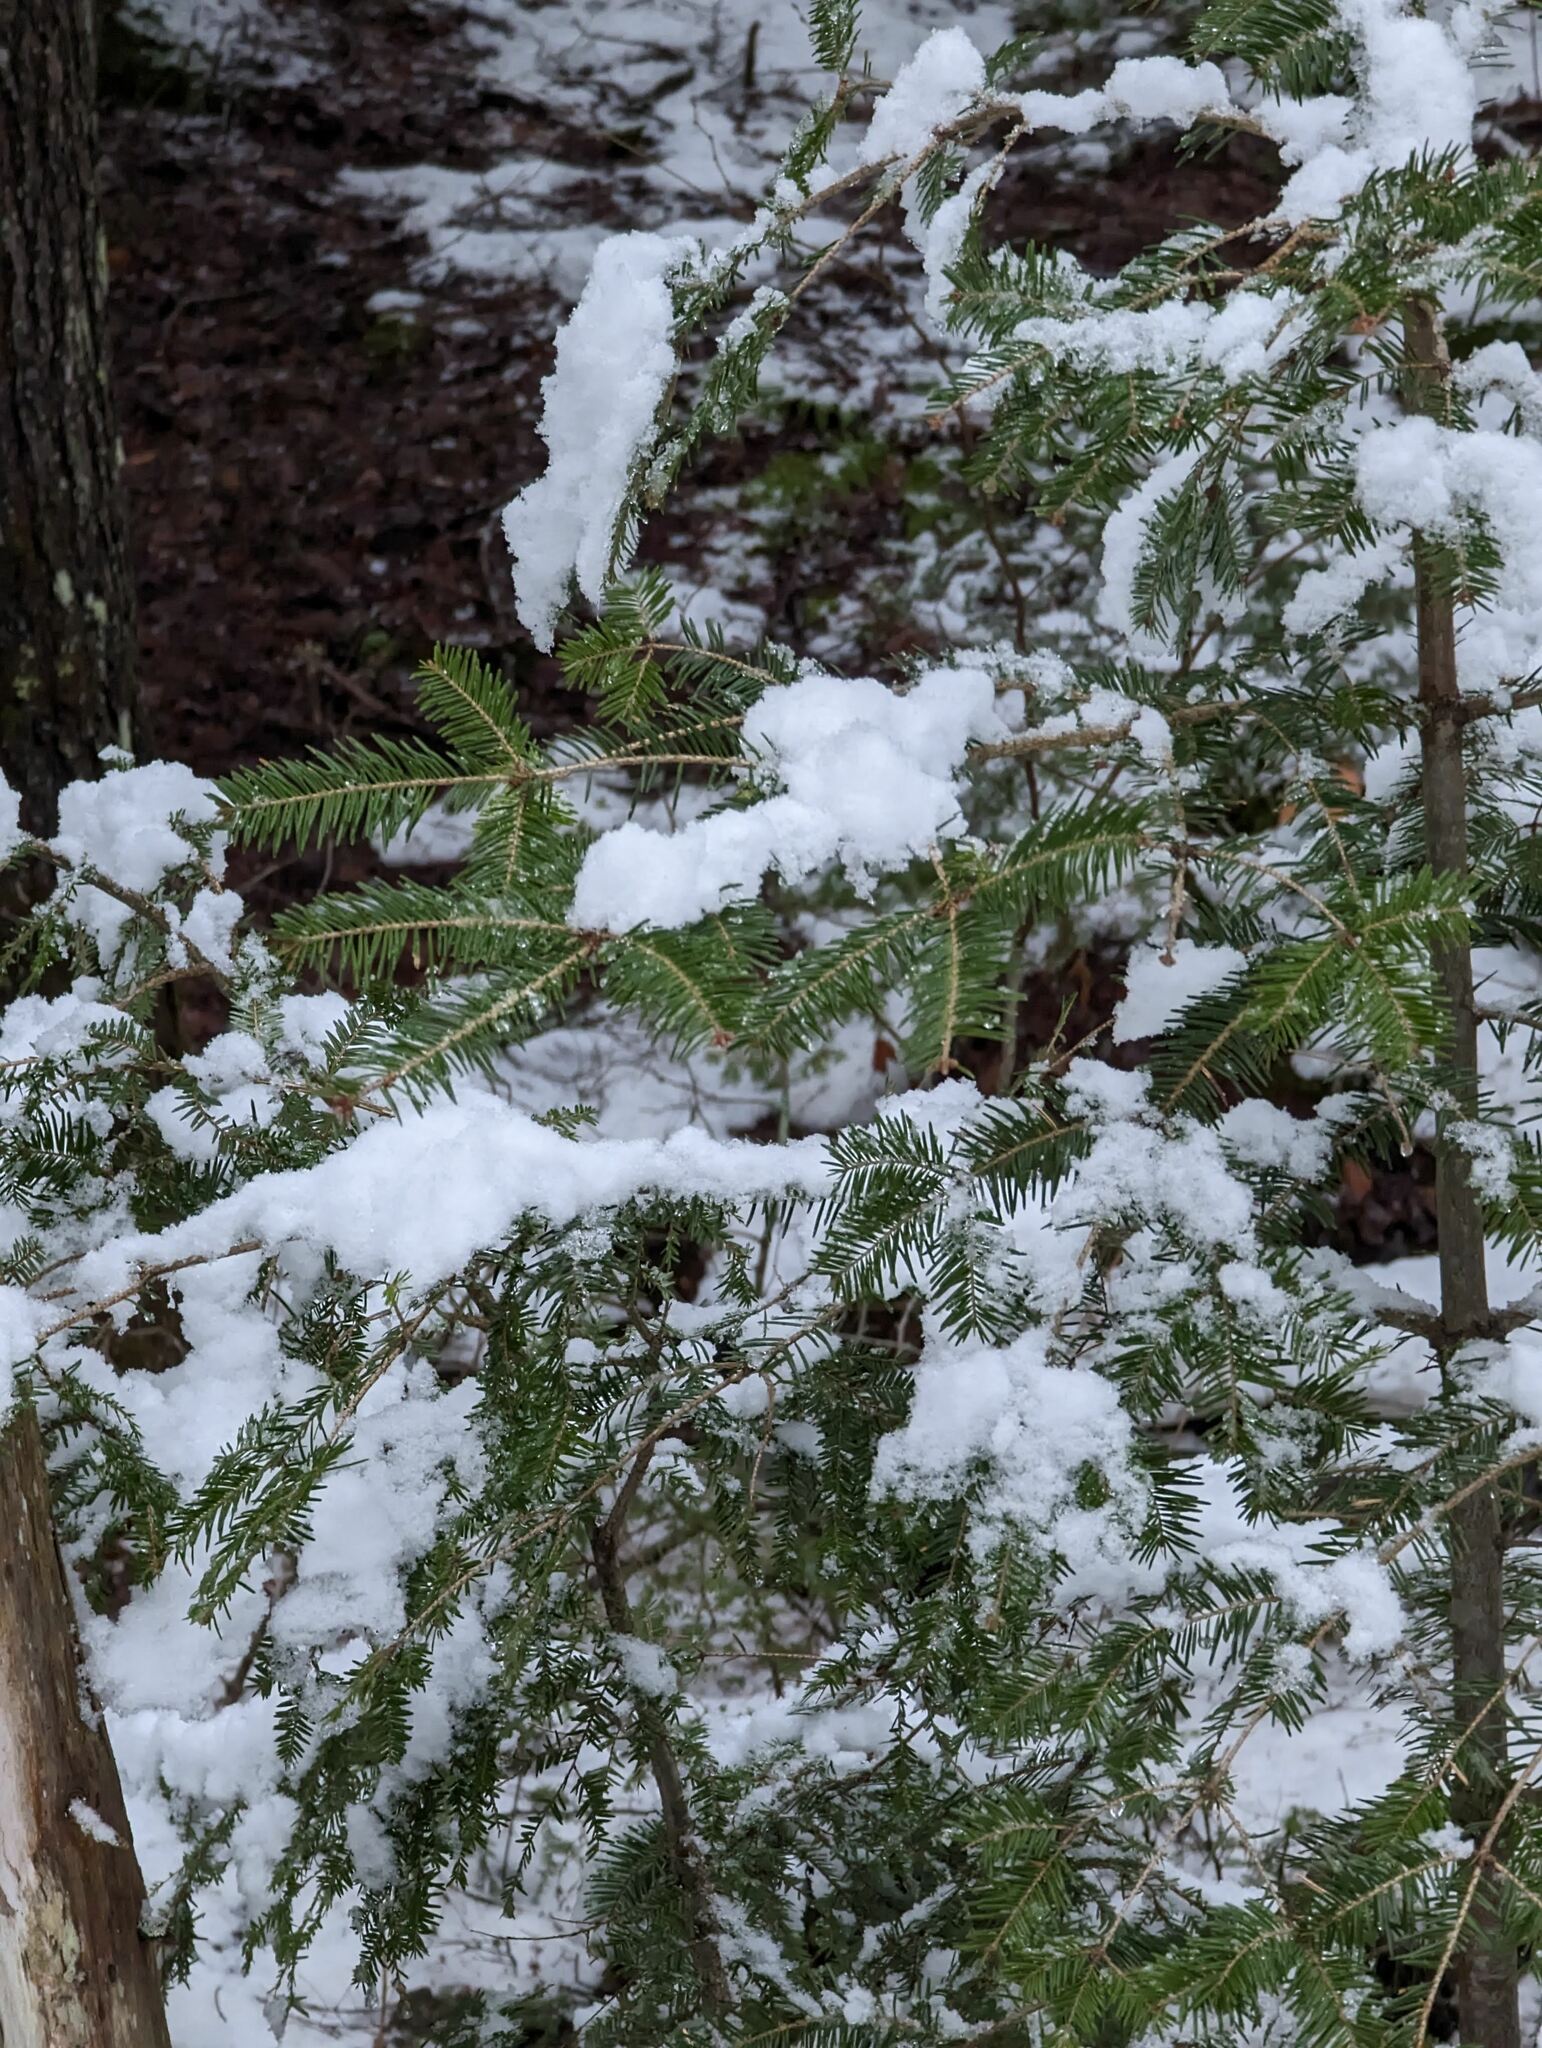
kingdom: Plantae
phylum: Tracheophyta
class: Pinopsida
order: Pinales
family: Pinaceae
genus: Abies
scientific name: Abies balsamea
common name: Balsam fir
